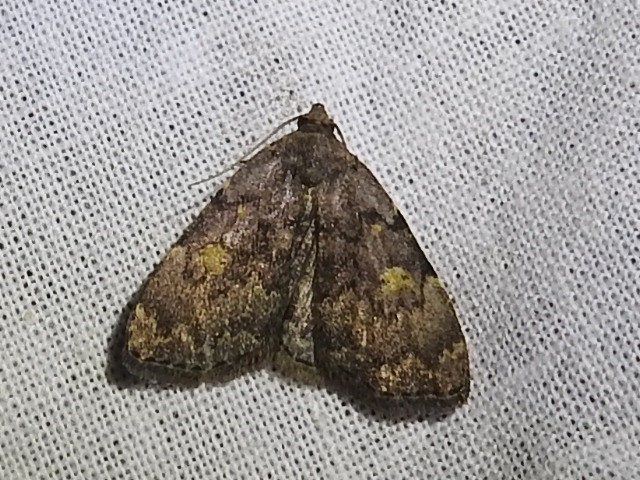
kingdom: Animalia
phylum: Arthropoda
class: Insecta
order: Lepidoptera
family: Erebidae
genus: Idia
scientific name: Idia aemula
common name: Common idia moth
